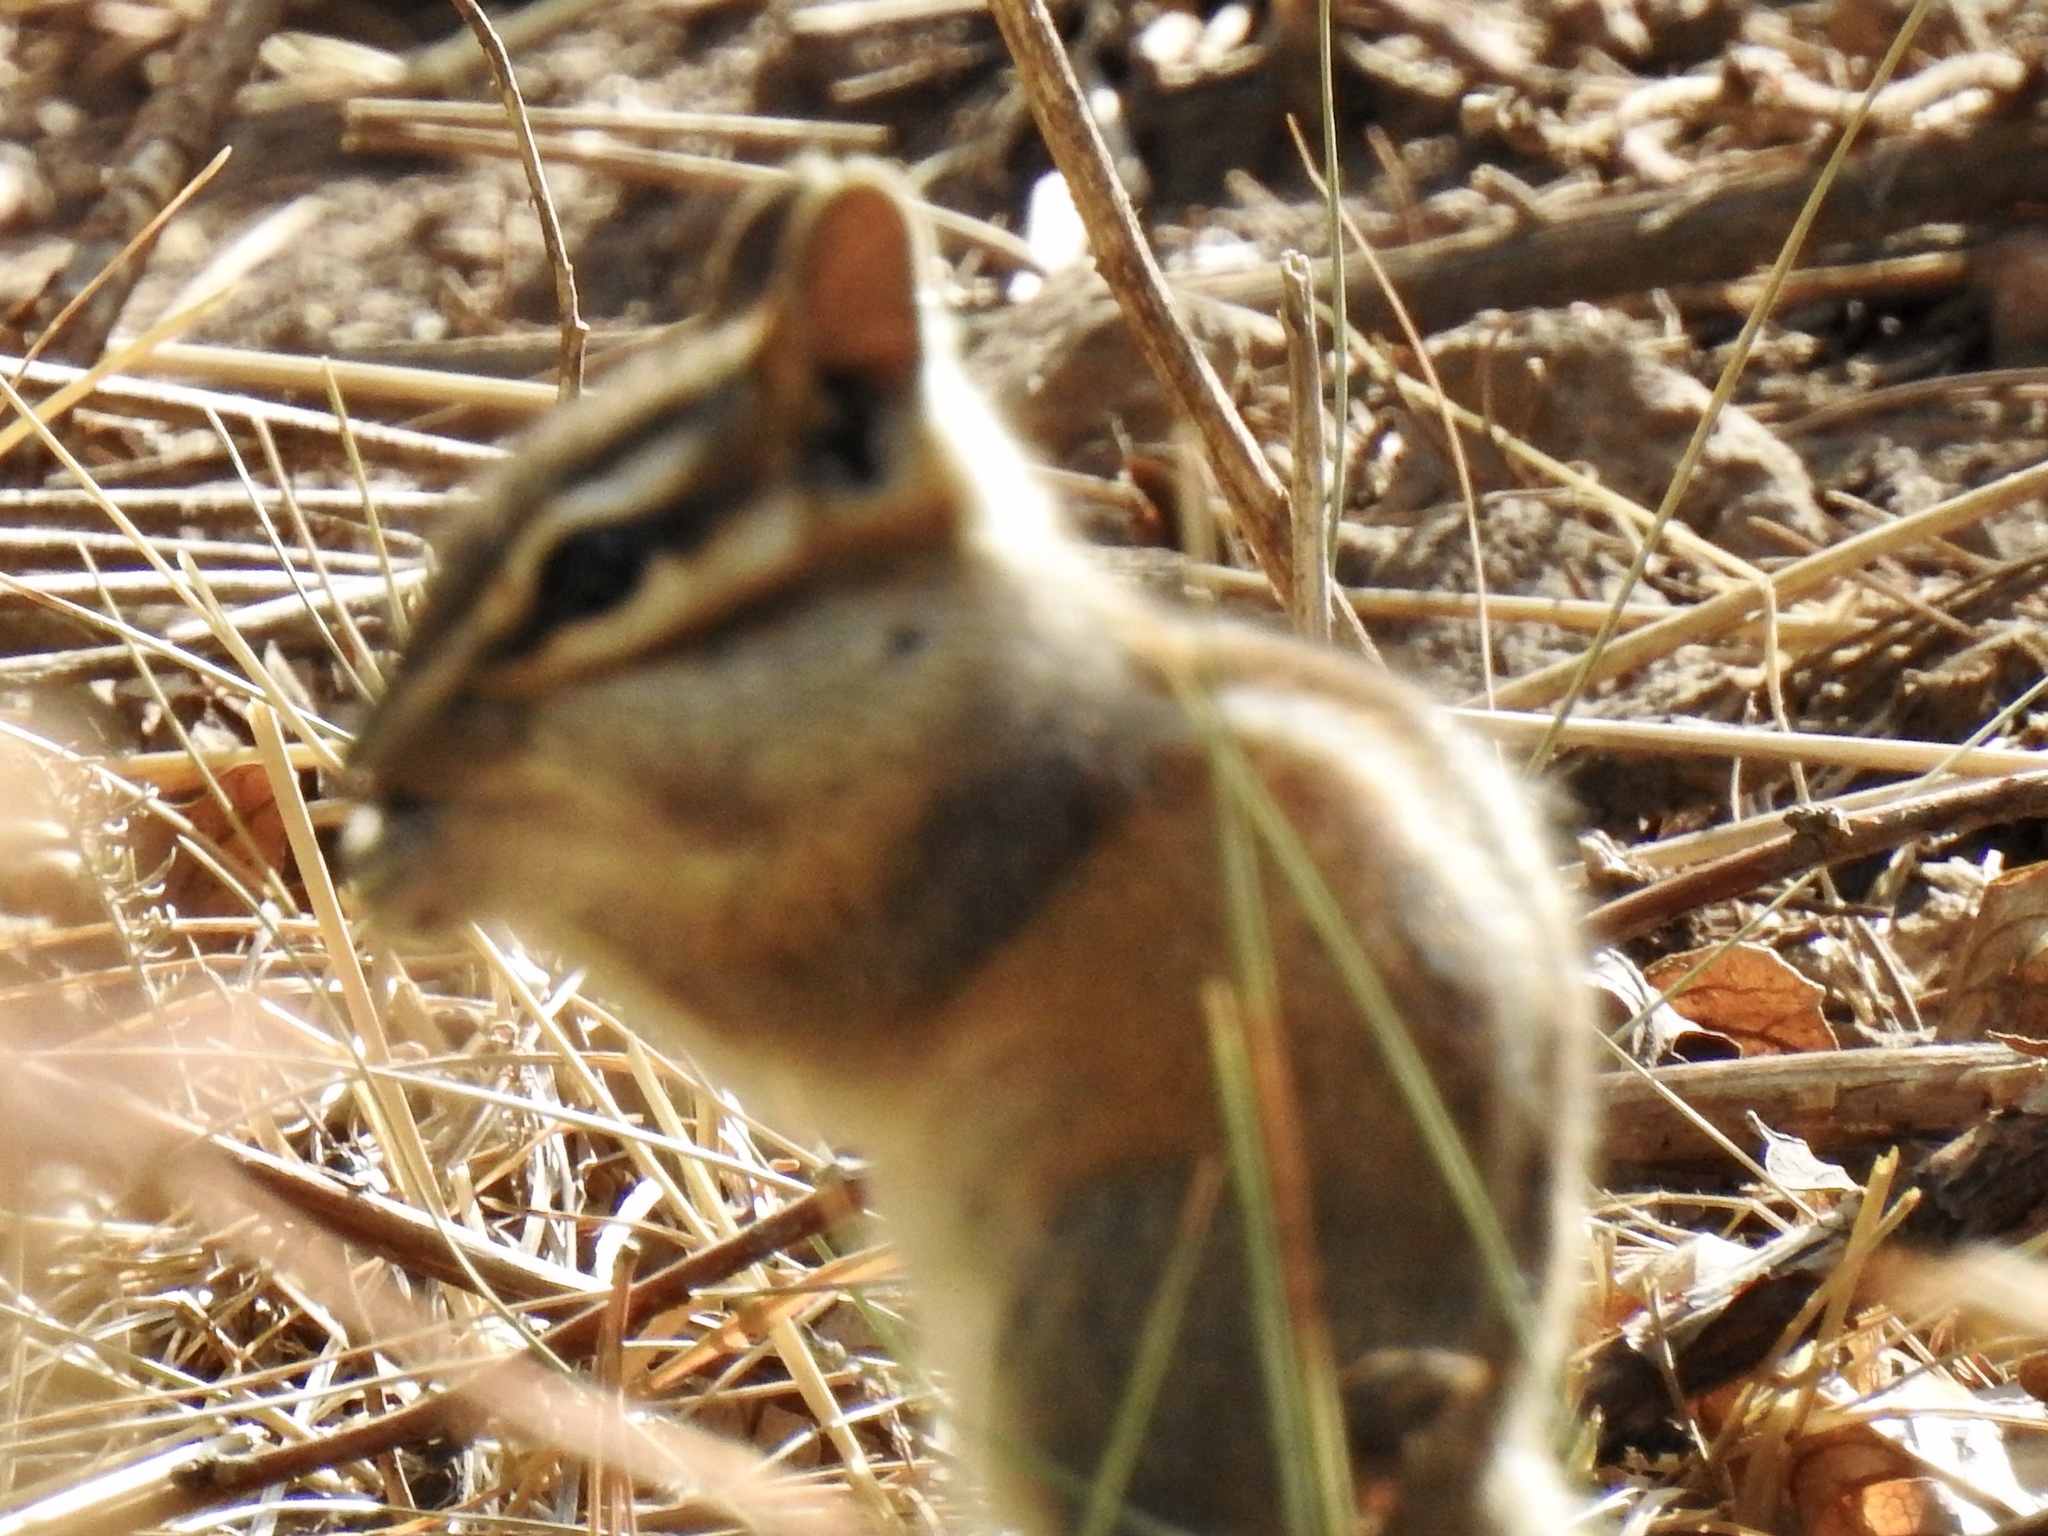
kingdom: Animalia
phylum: Chordata
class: Mammalia
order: Rodentia
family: Sciuridae
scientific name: Sciuridae
